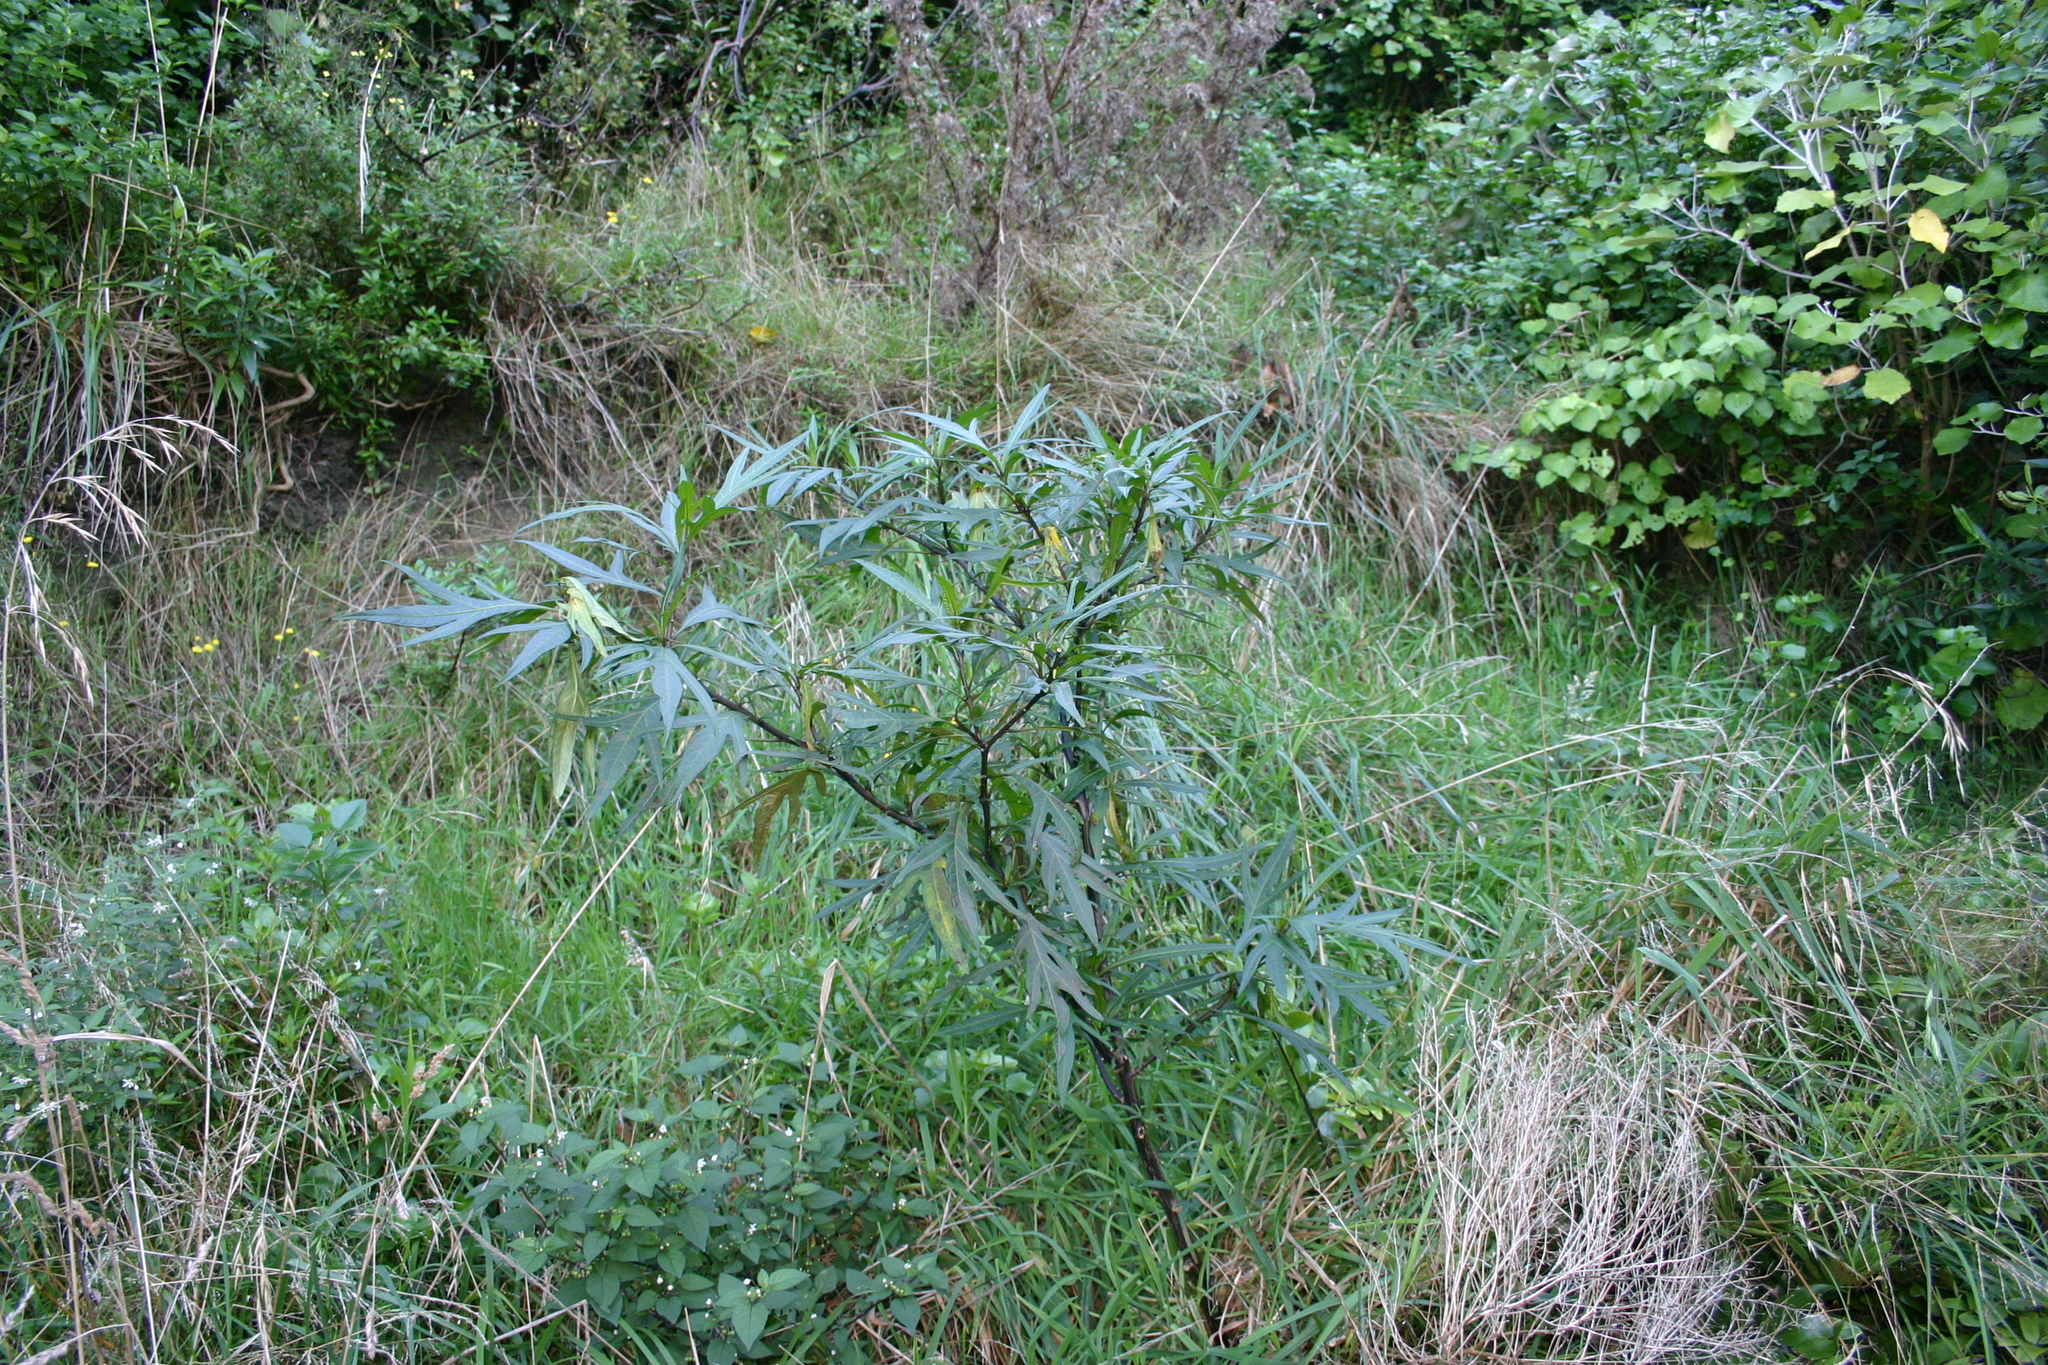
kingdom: Plantae
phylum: Tracheophyta
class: Magnoliopsida
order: Solanales
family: Solanaceae
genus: Solanum
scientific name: Solanum
